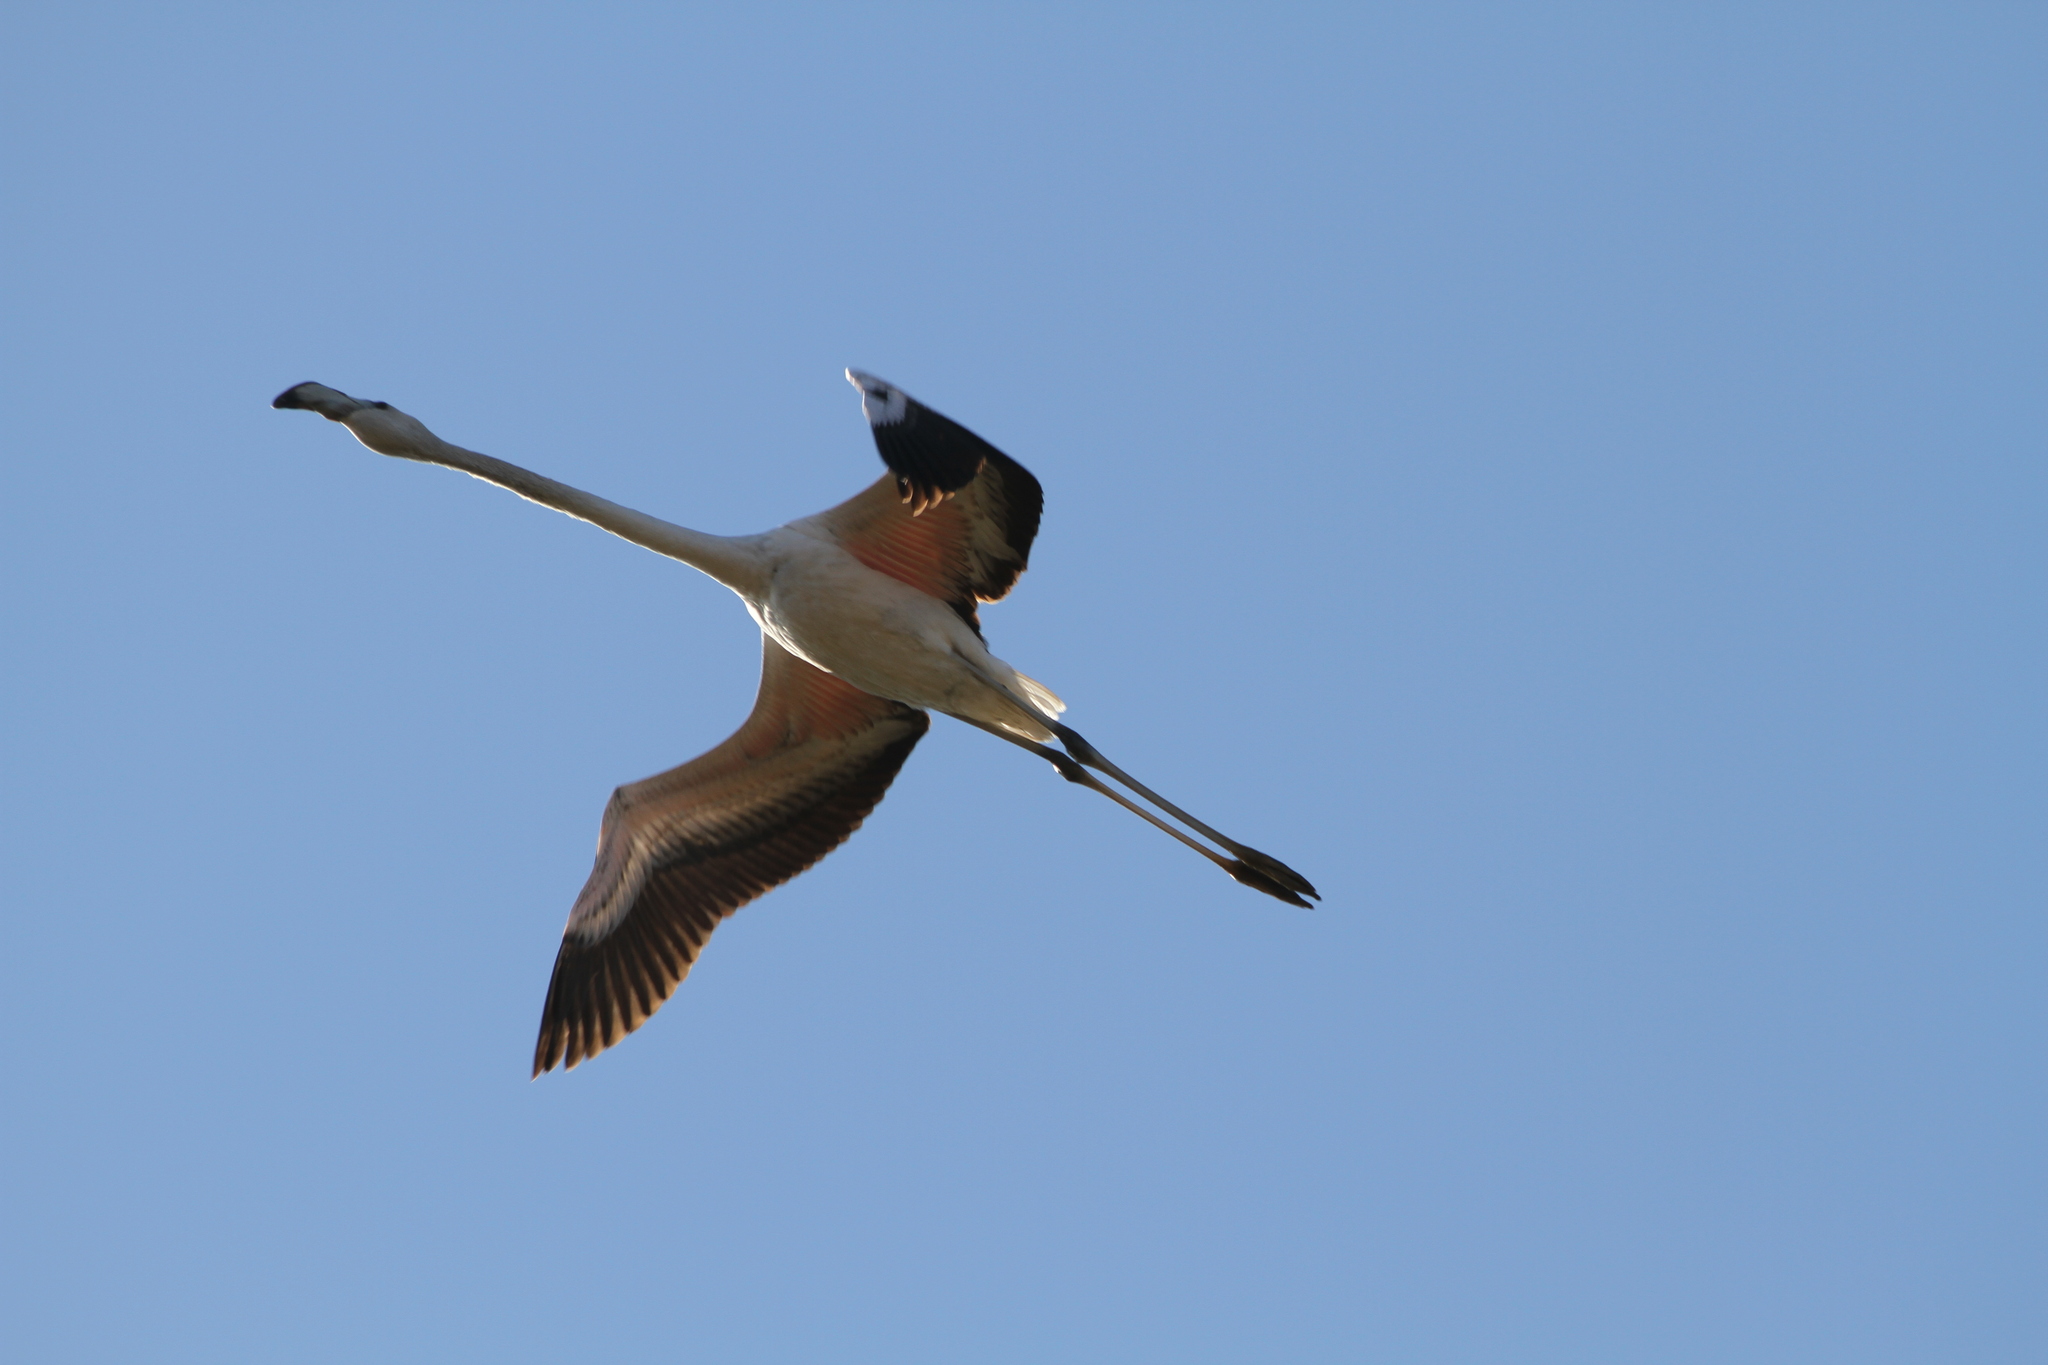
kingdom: Animalia
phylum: Chordata
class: Aves
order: Phoenicopteriformes
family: Phoenicopteridae
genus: Phoenicopterus
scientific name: Phoenicopterus roseus
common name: Greater flamingo
